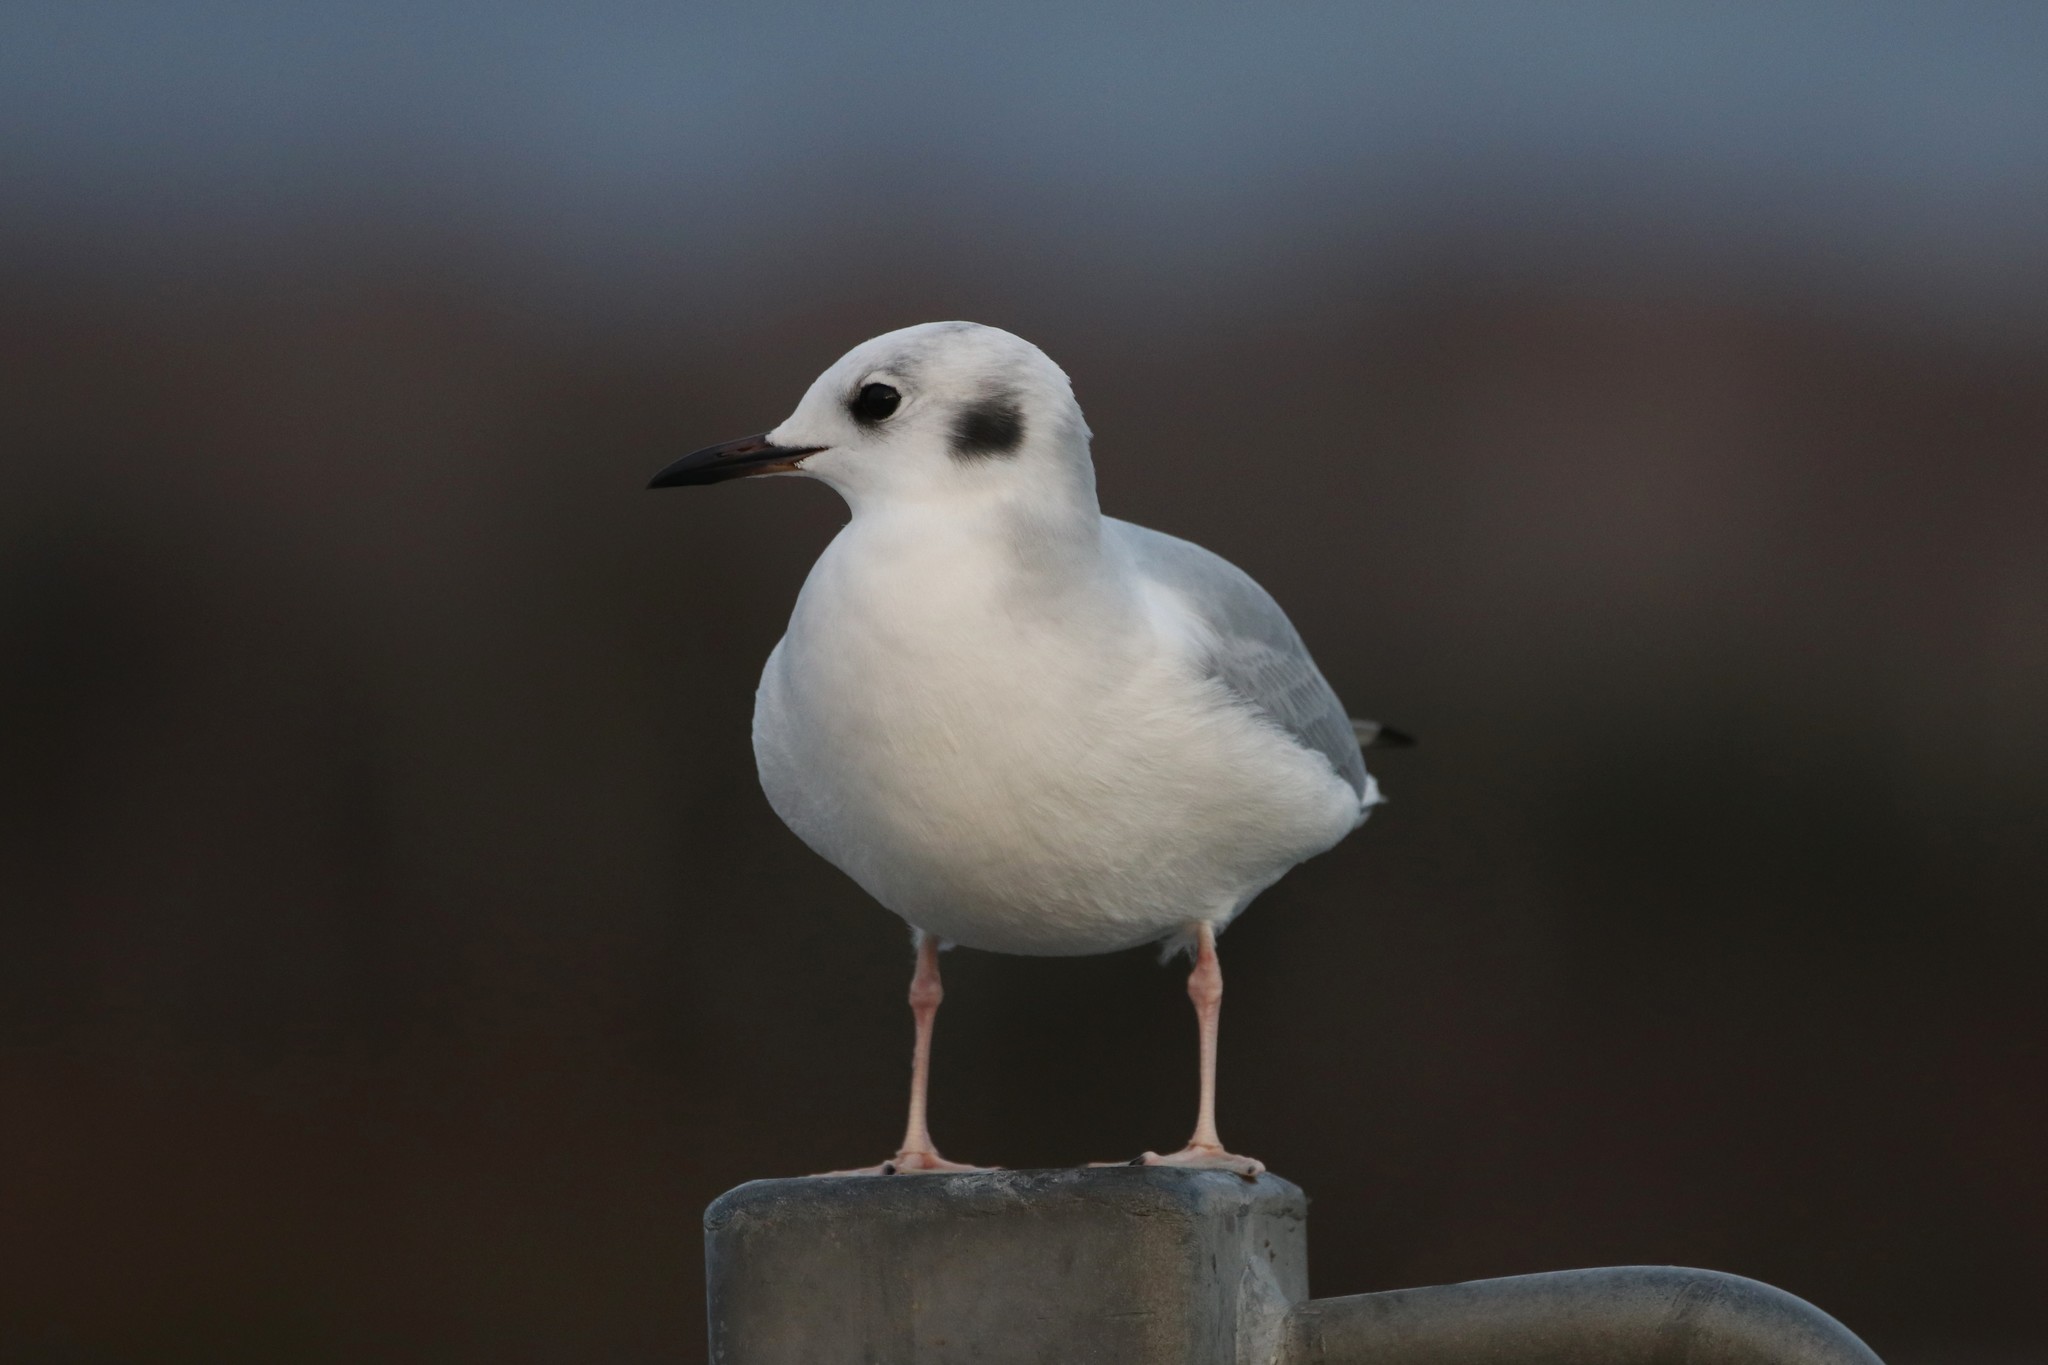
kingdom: Animalia
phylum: Chordata
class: Aves
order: Charadriiformes
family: Laridae
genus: Chroicocephalus
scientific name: Chroicocephalus philadelphia
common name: Bonaparte's gull
